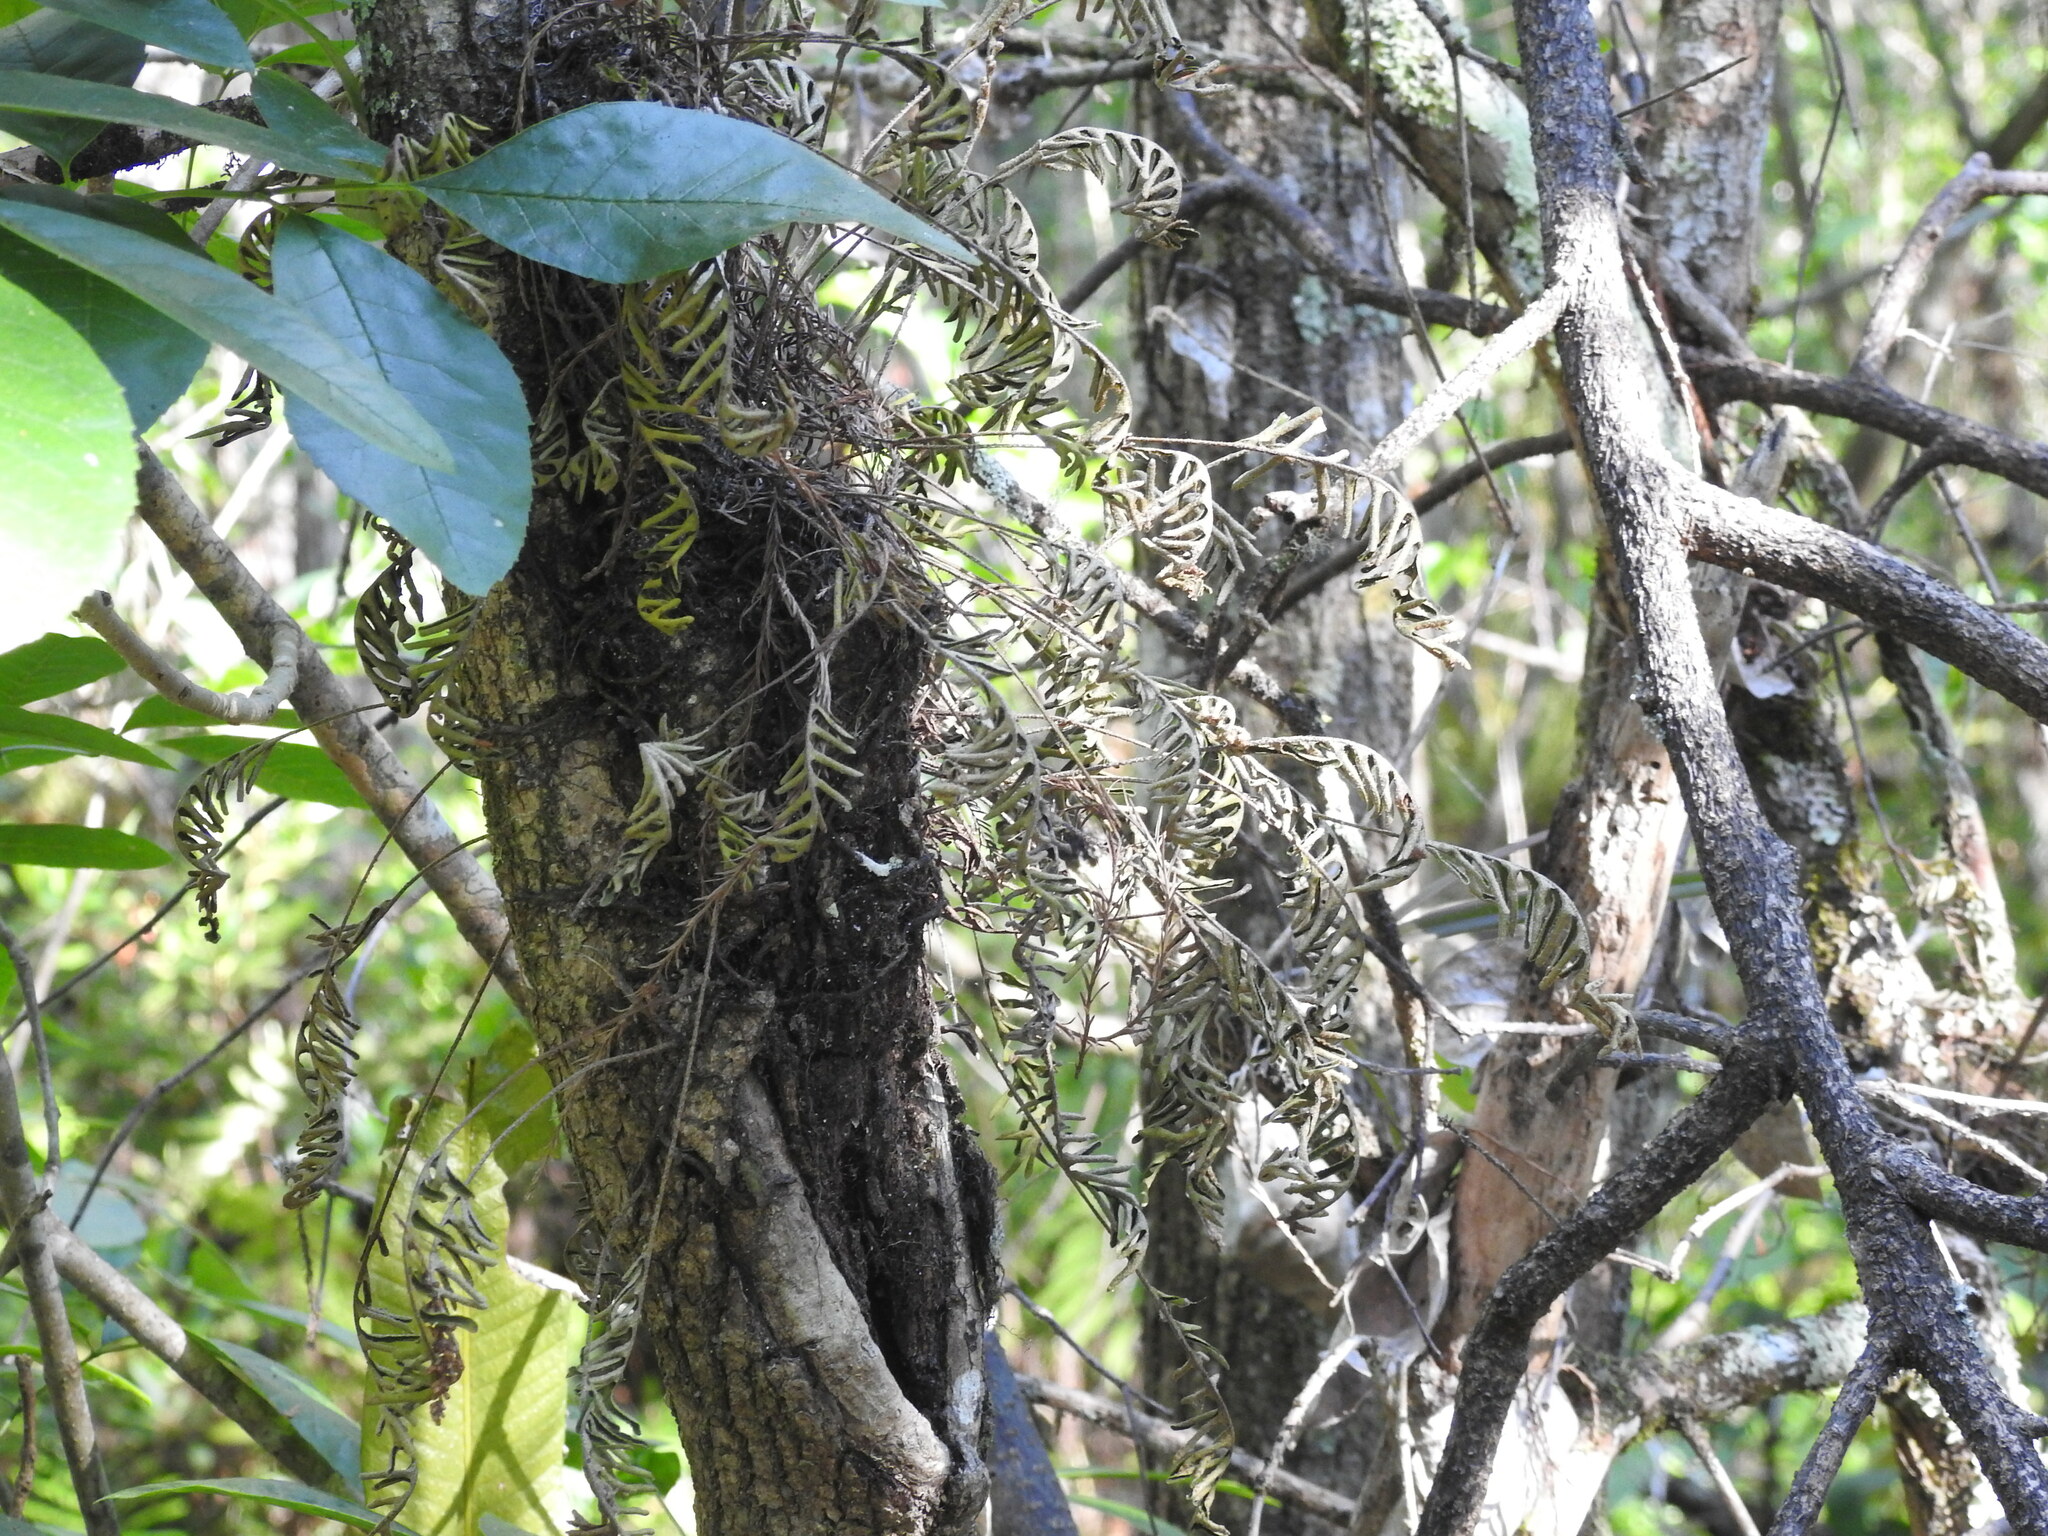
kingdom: Plantae
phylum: Tracheophyta
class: Polypodiopsida
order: Polypodiales
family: Polypodiaceae
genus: Pleopeltis
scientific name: Pleopeltis michauxiana
